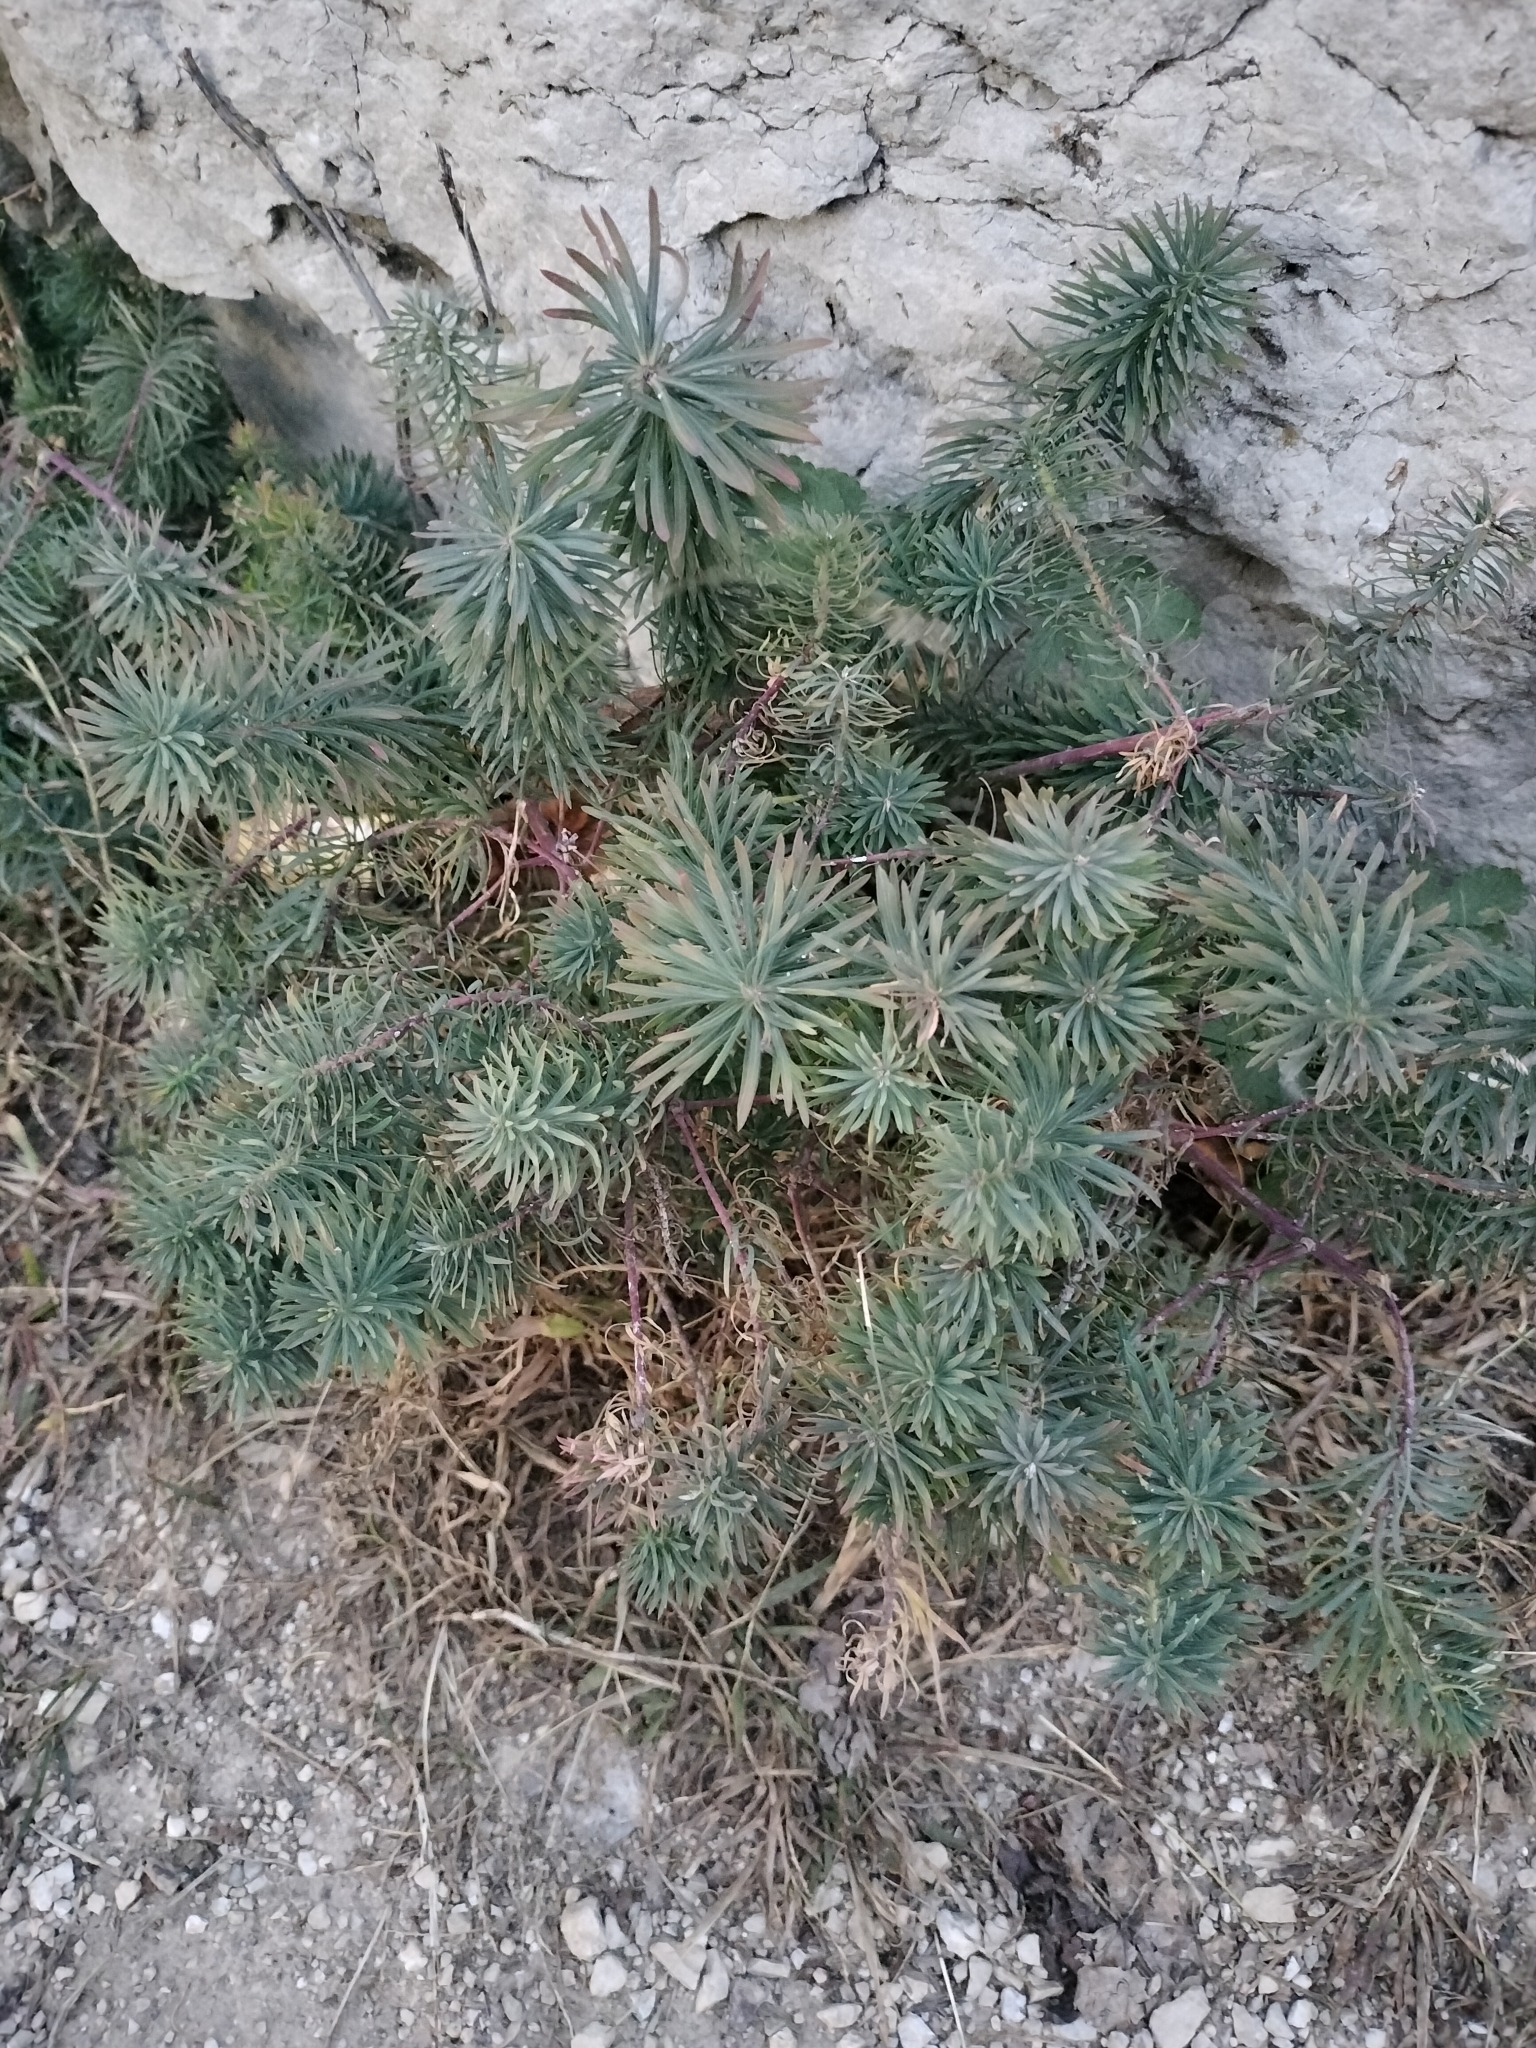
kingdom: Plantae
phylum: Tracheophyta
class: Magnoliopsida
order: Malpighiales
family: Euphorbiaceae
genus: Euphorbia
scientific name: Euphorbia cyparissias
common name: Cypress spurge
